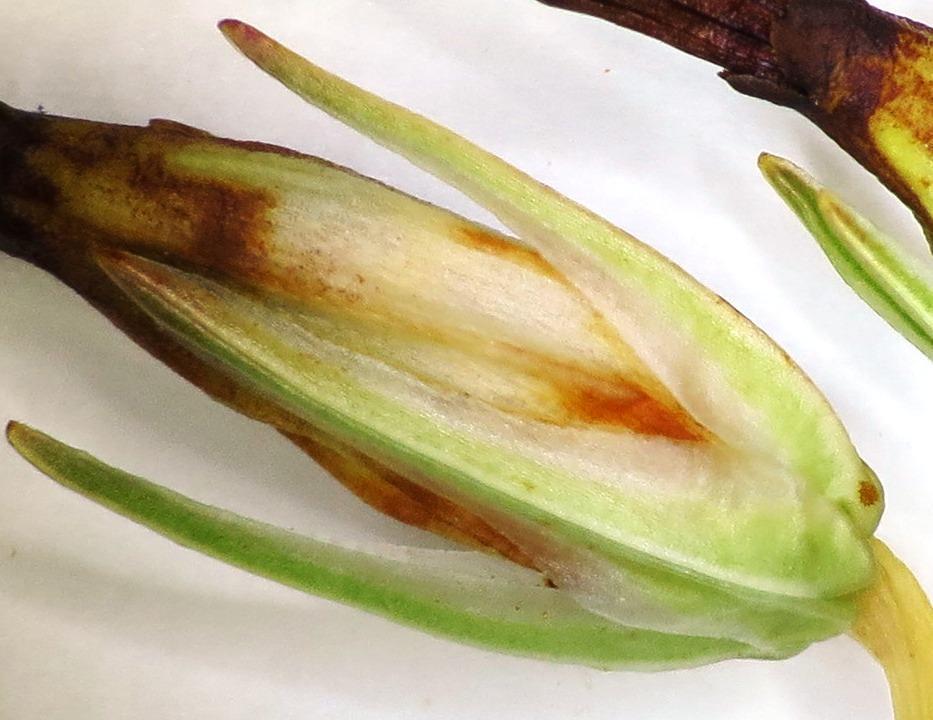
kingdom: Plantae
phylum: Tracheophyta
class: Magnoliopsida
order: Ericales
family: Ericaceae
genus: Erica
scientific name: Erica plukenetii
